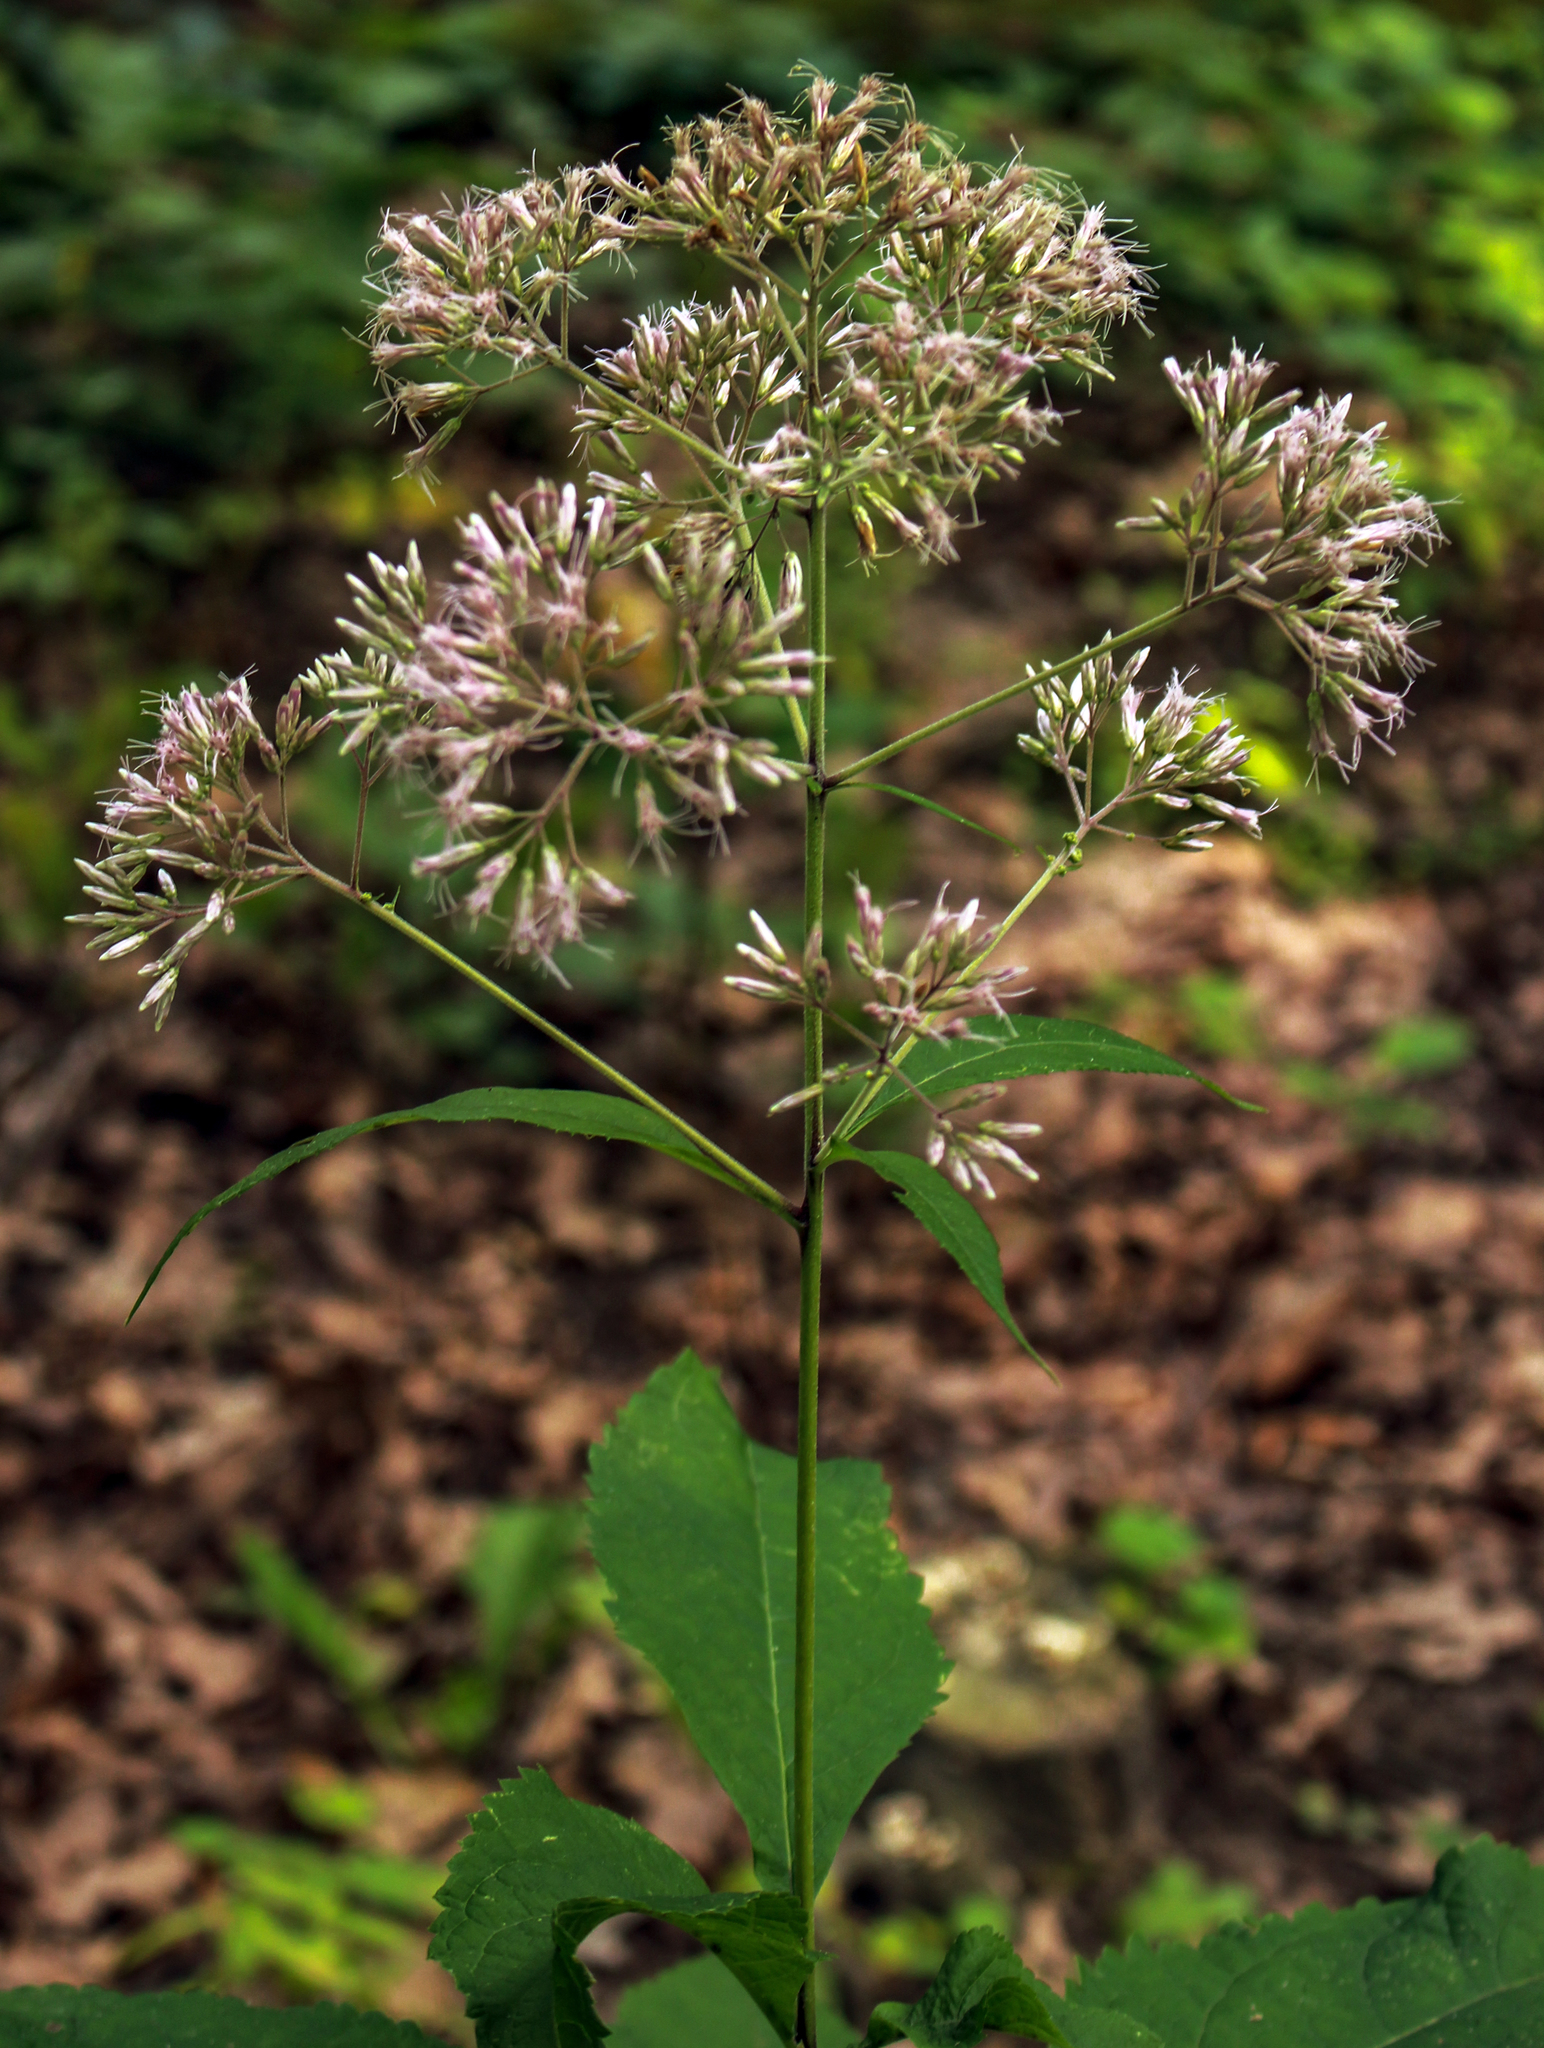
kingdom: Plantae
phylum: Tracheophyta
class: Magnoliopsida
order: Asterales
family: Asteraceae
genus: Eutrochium
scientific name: Eutrochium purpureum
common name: Gravelroot
